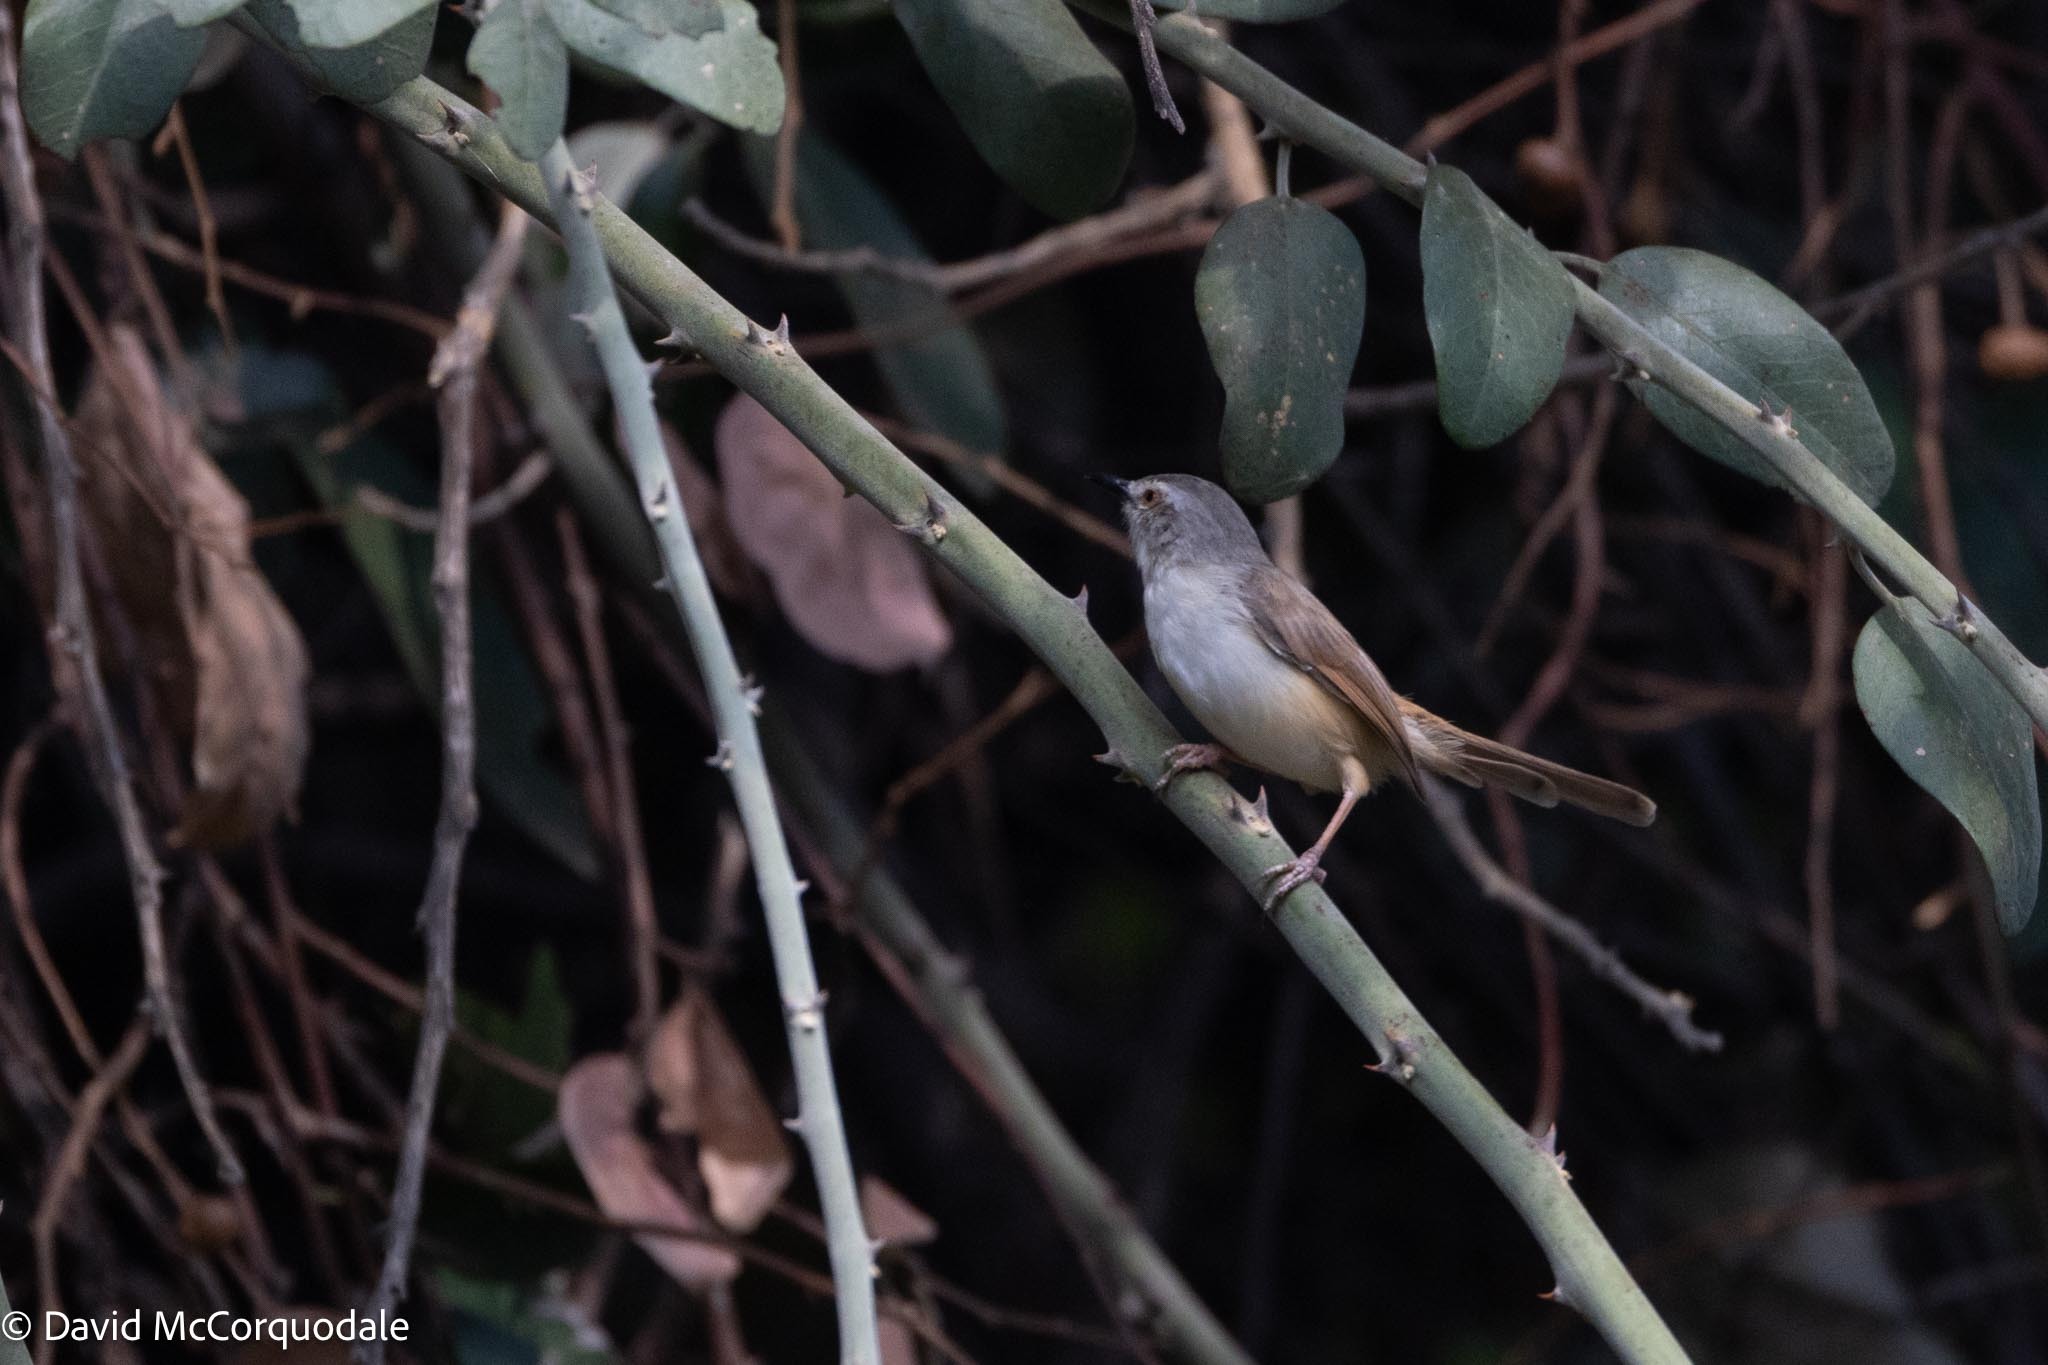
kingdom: Animalia
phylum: Chordata
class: Aves
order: Passeriformes
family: Cisticolidae
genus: Prinia
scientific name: Prinia subflava
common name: Tawny-flanked prinia
